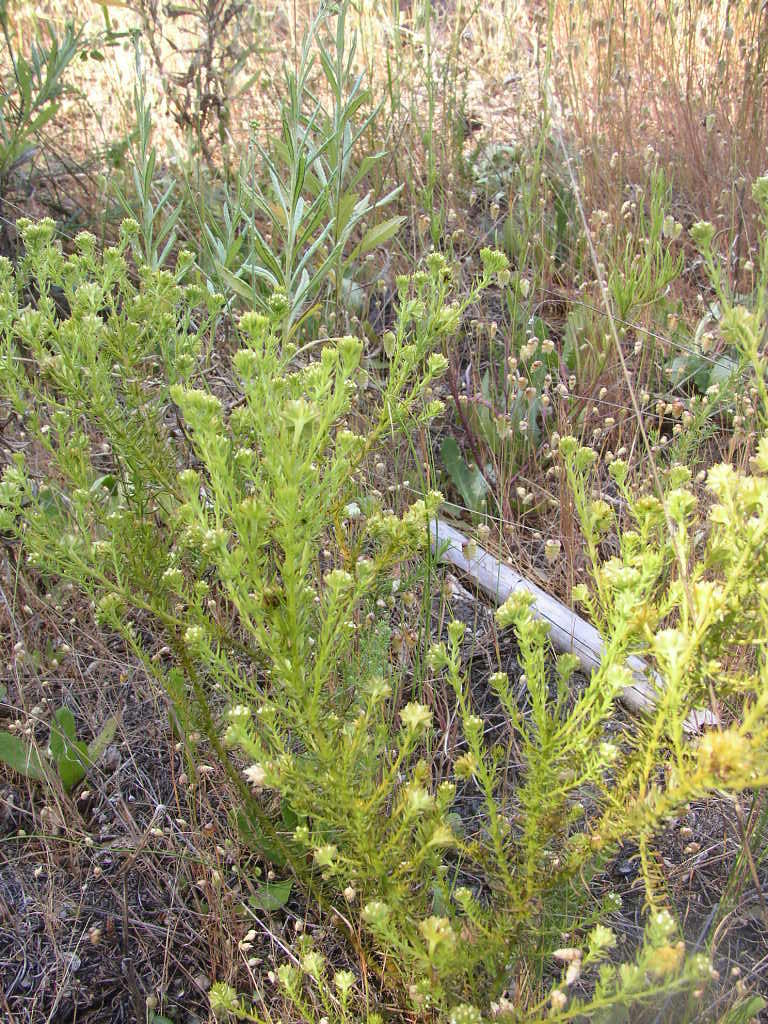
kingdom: Plantae
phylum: Tracheophyta
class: Magnoliopsida
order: Santalales
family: Thesiaceae
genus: Thesium
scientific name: Thesium scabrum
